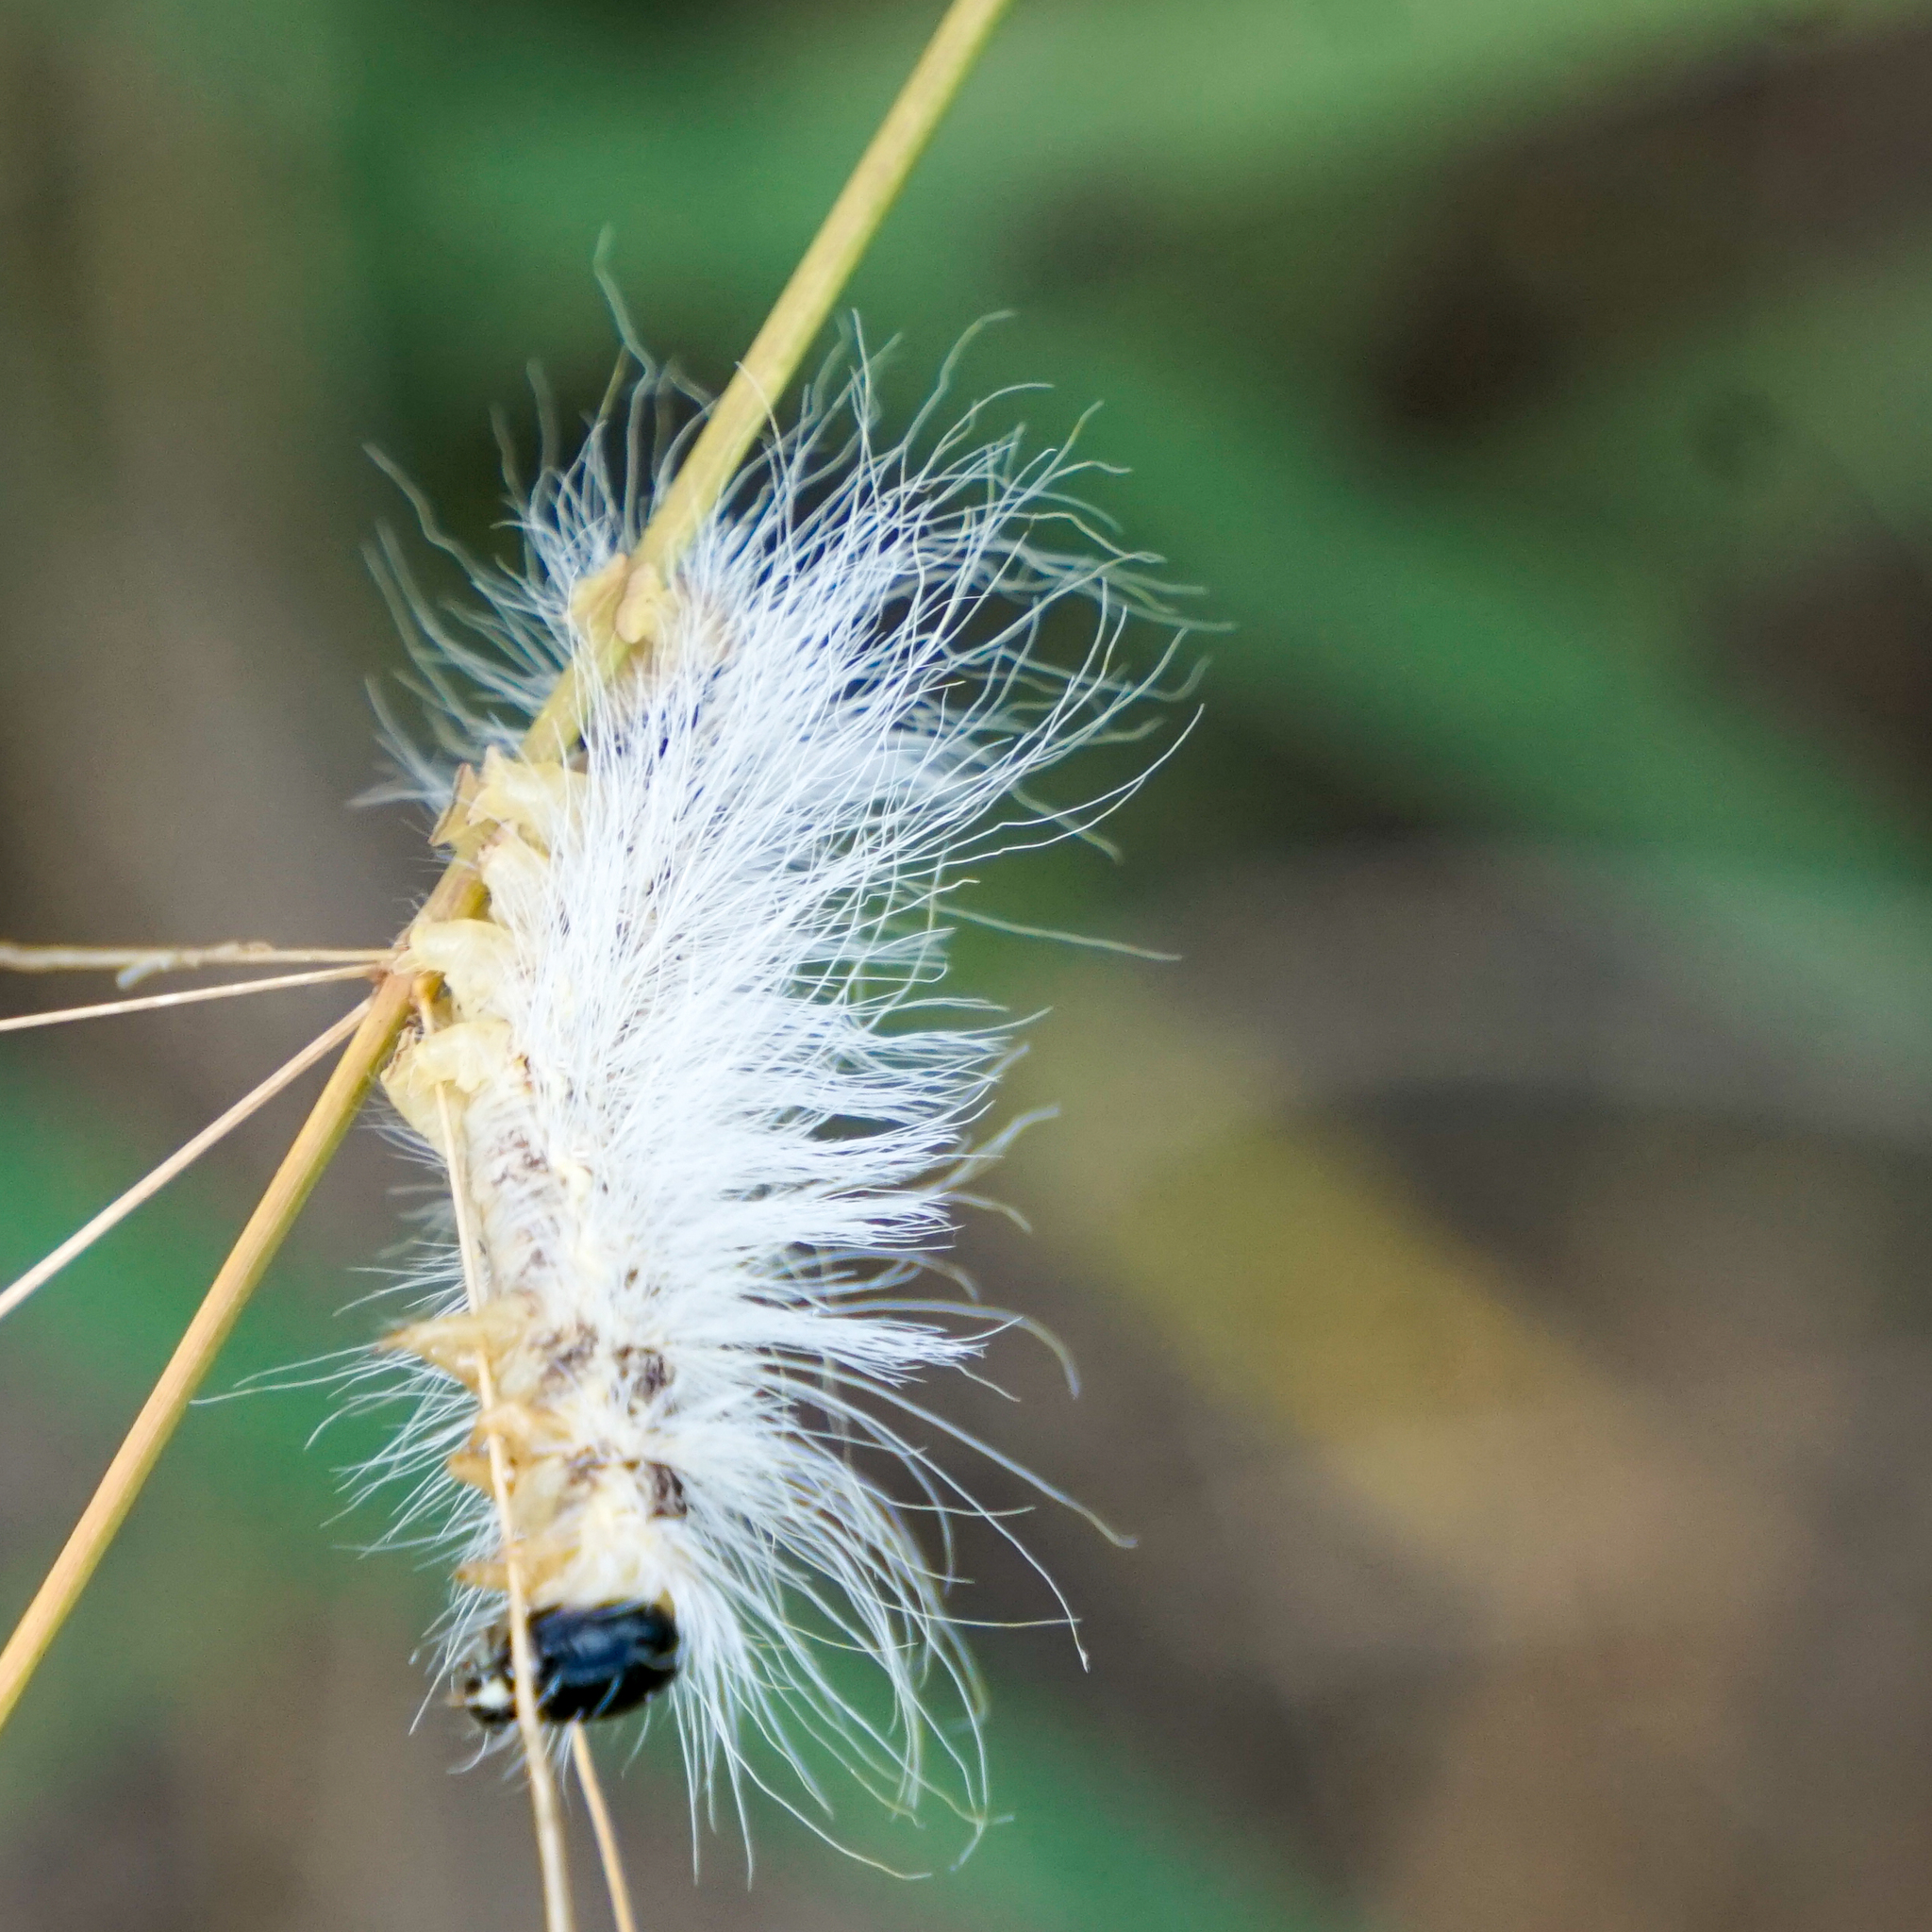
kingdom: Animalia
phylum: Arthropoda
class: Insecta
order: Lepidoptera
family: Erebidae
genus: Hyphantria
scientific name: Hyphantria cunea
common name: American white moth
